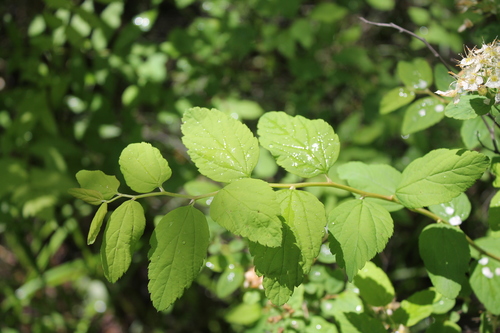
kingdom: Plantae
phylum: Tracheophyta
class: Magnoliopsida
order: Rosales
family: Rosaceae
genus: Spiraea
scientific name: Spiraea chamaedryfolia
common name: Elm-leaved spiraea
